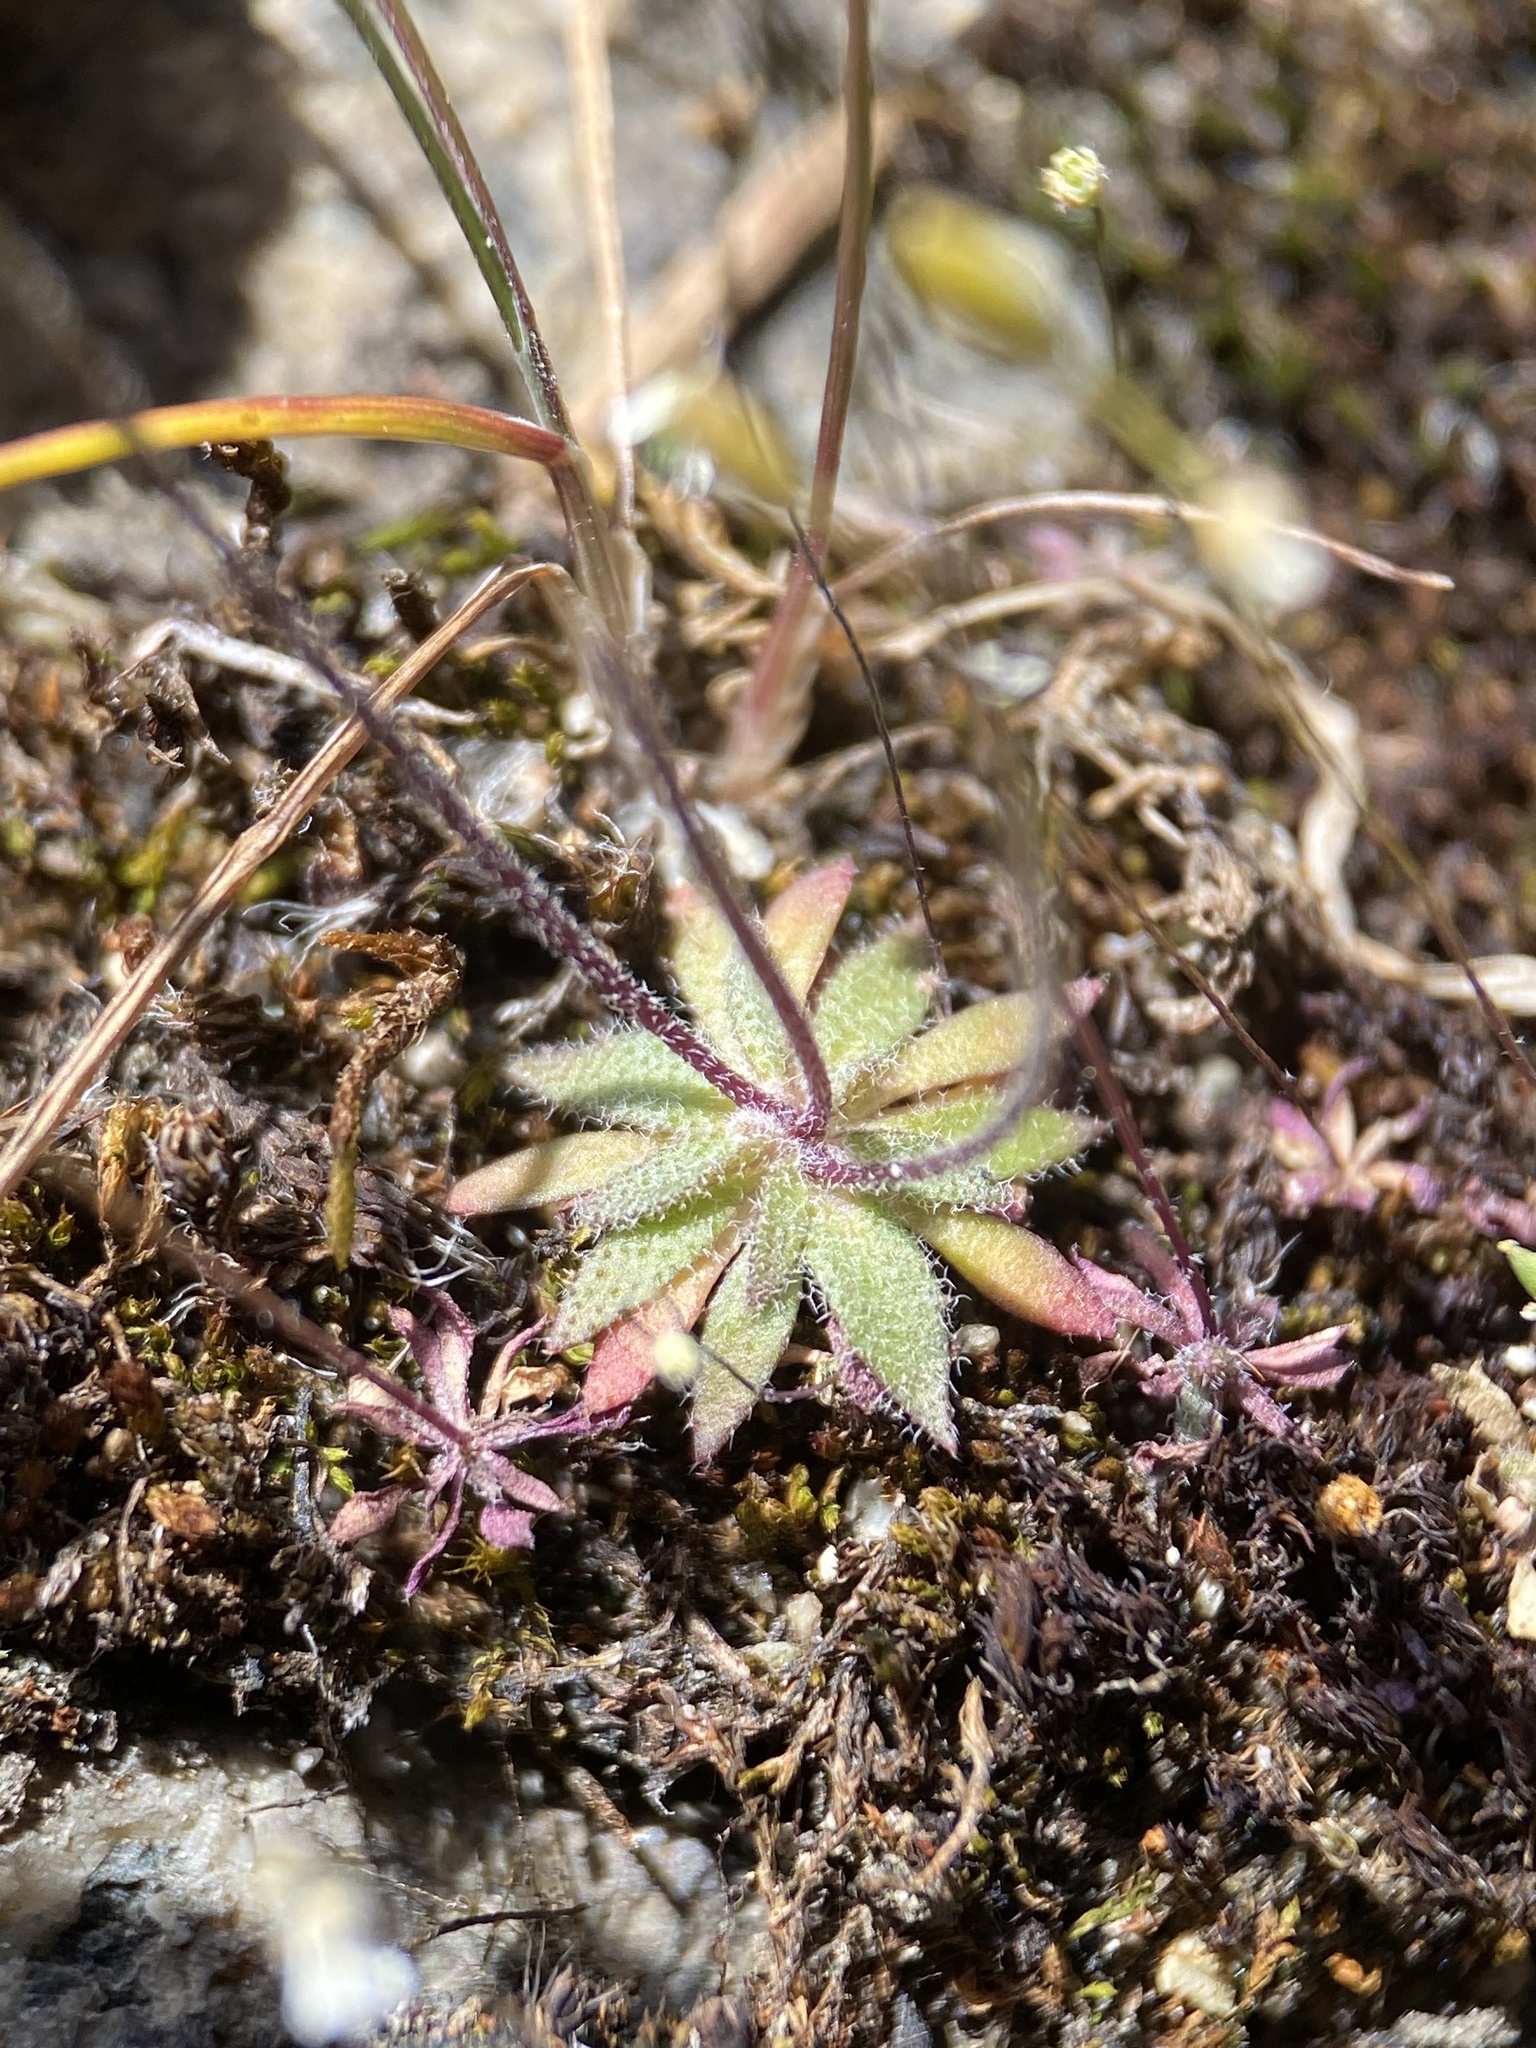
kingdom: Plantae
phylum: Tracheophyta
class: Magnoliopsida
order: Brassicales
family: Brassicaceae
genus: Draba
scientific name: Draba verna
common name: Spring draba
